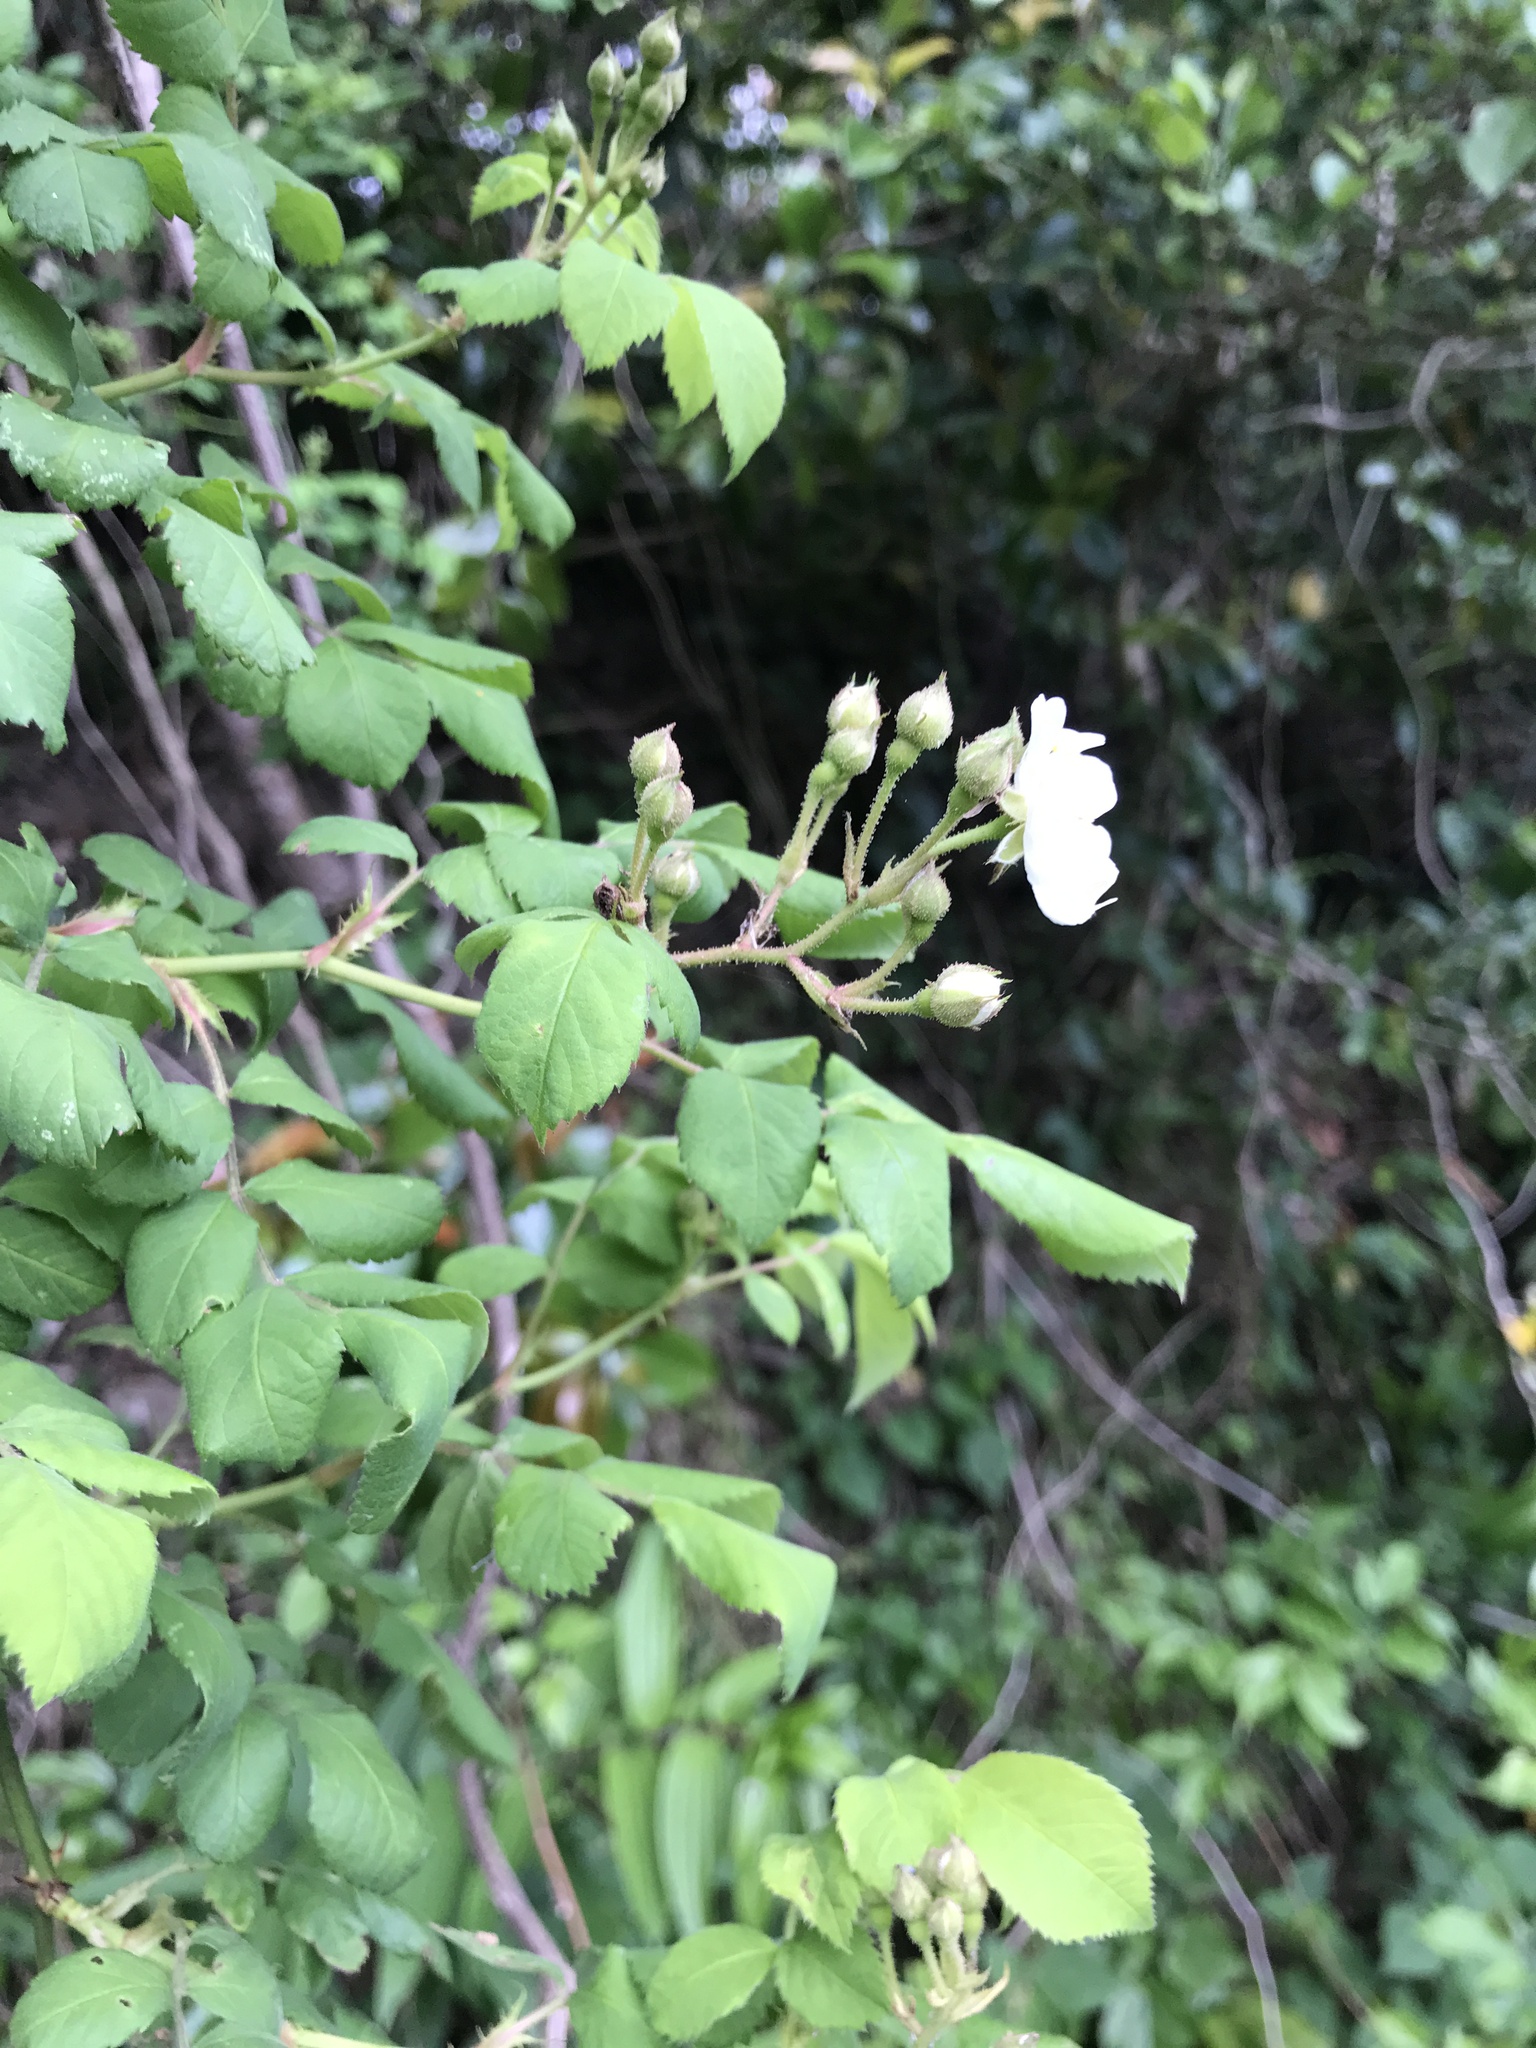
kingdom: Plantae
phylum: Tracheophyta
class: Magnoliopsida
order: Rosales
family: Rosaceae
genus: Rosa
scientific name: Rosa multiflora
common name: Multiflora rose
